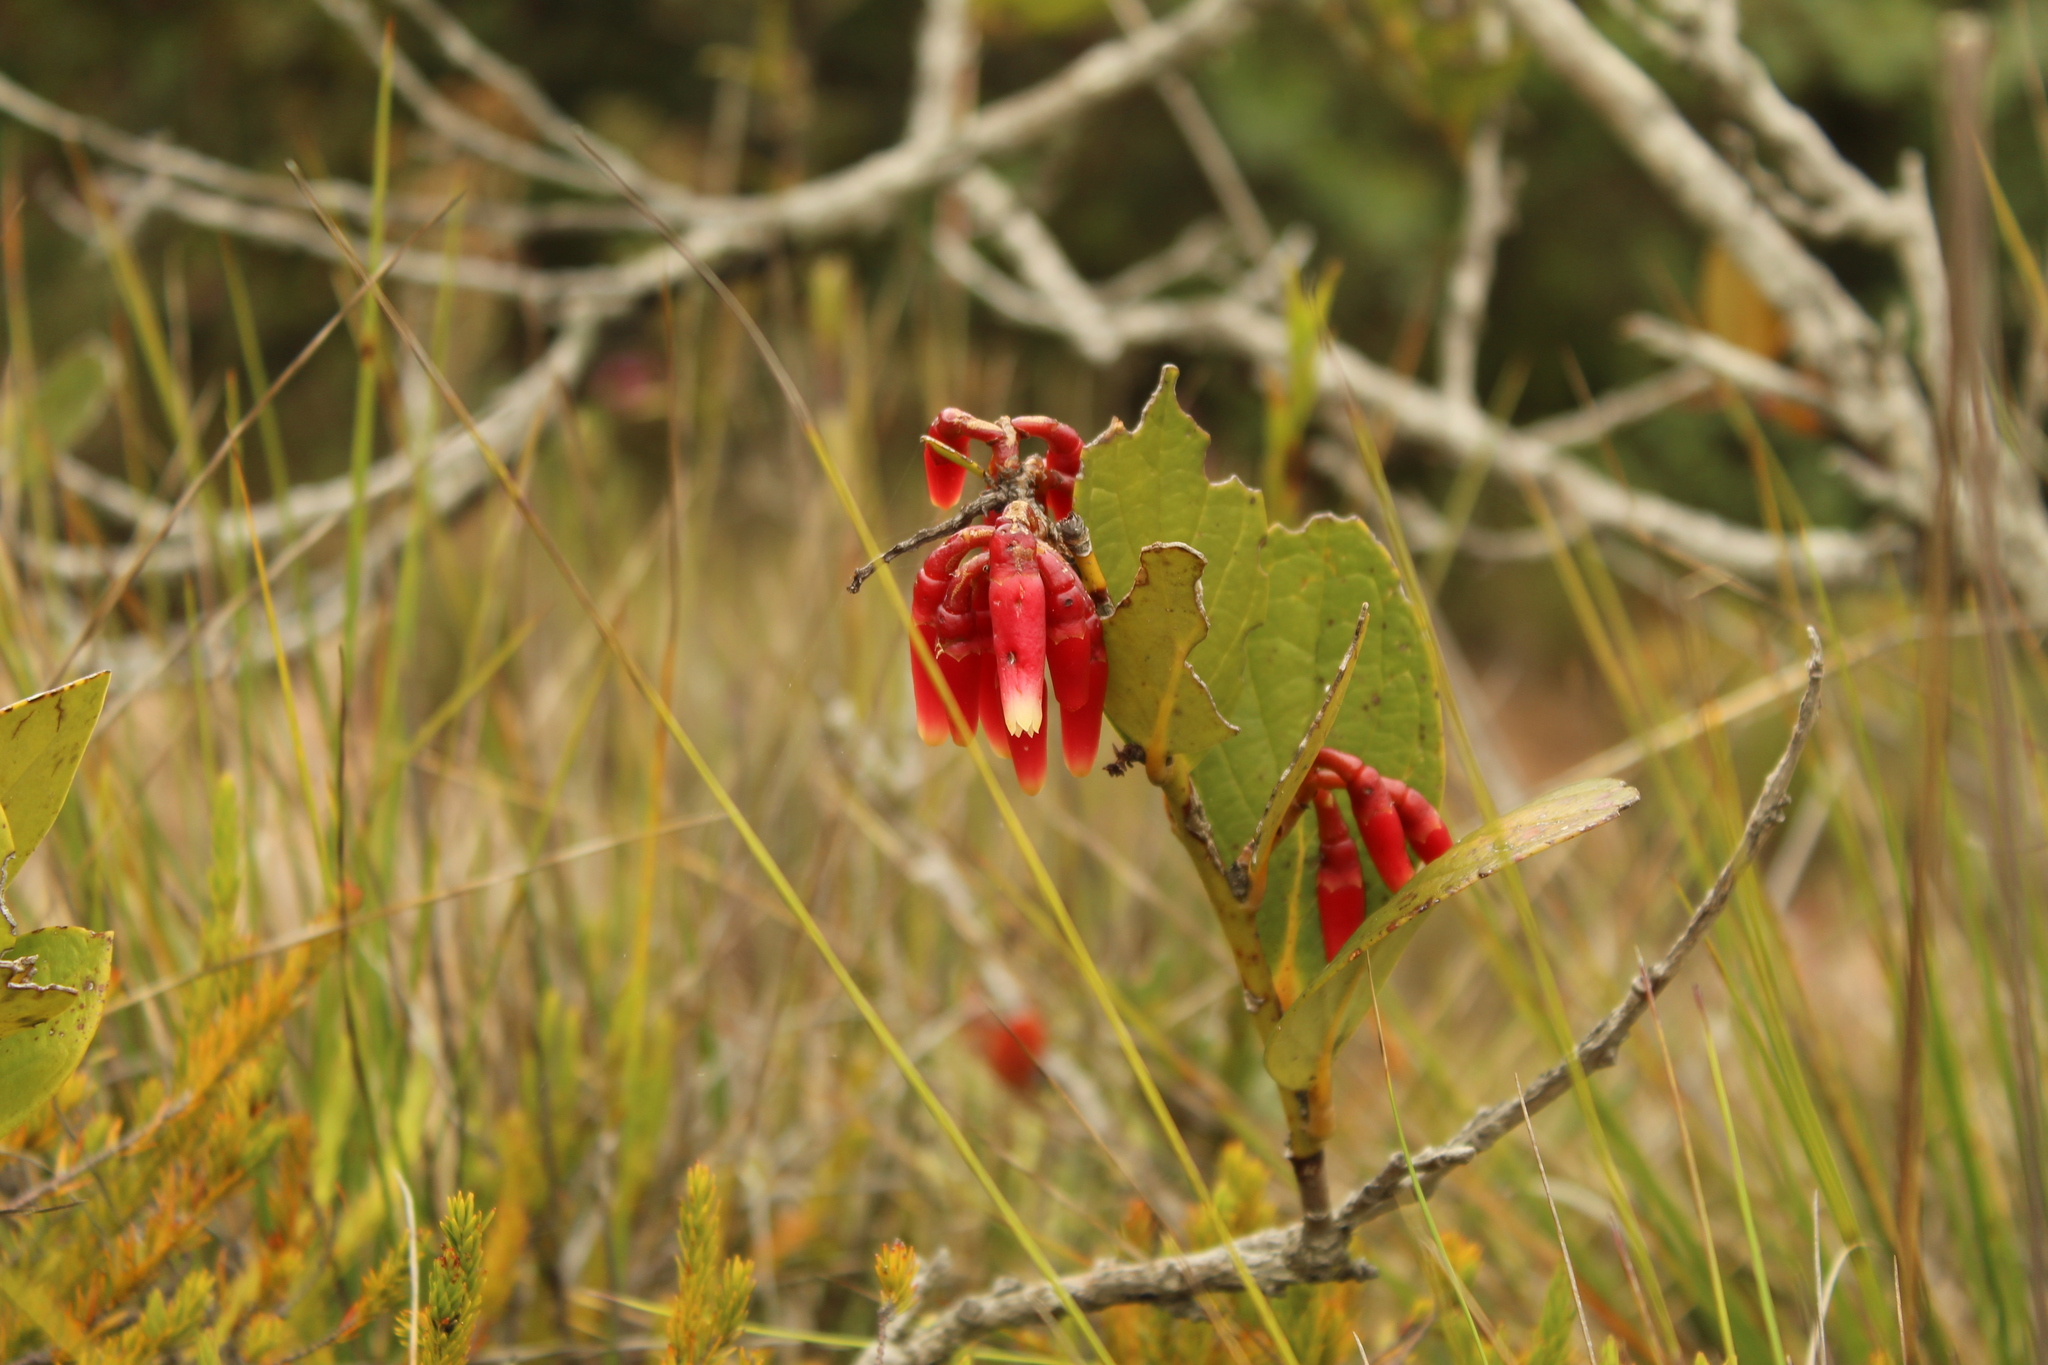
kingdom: Plantae
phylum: Tracheophyta
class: Magnoliopsida
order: Ericales
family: Ericaceae
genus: Macleania
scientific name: Macleania rupestris
